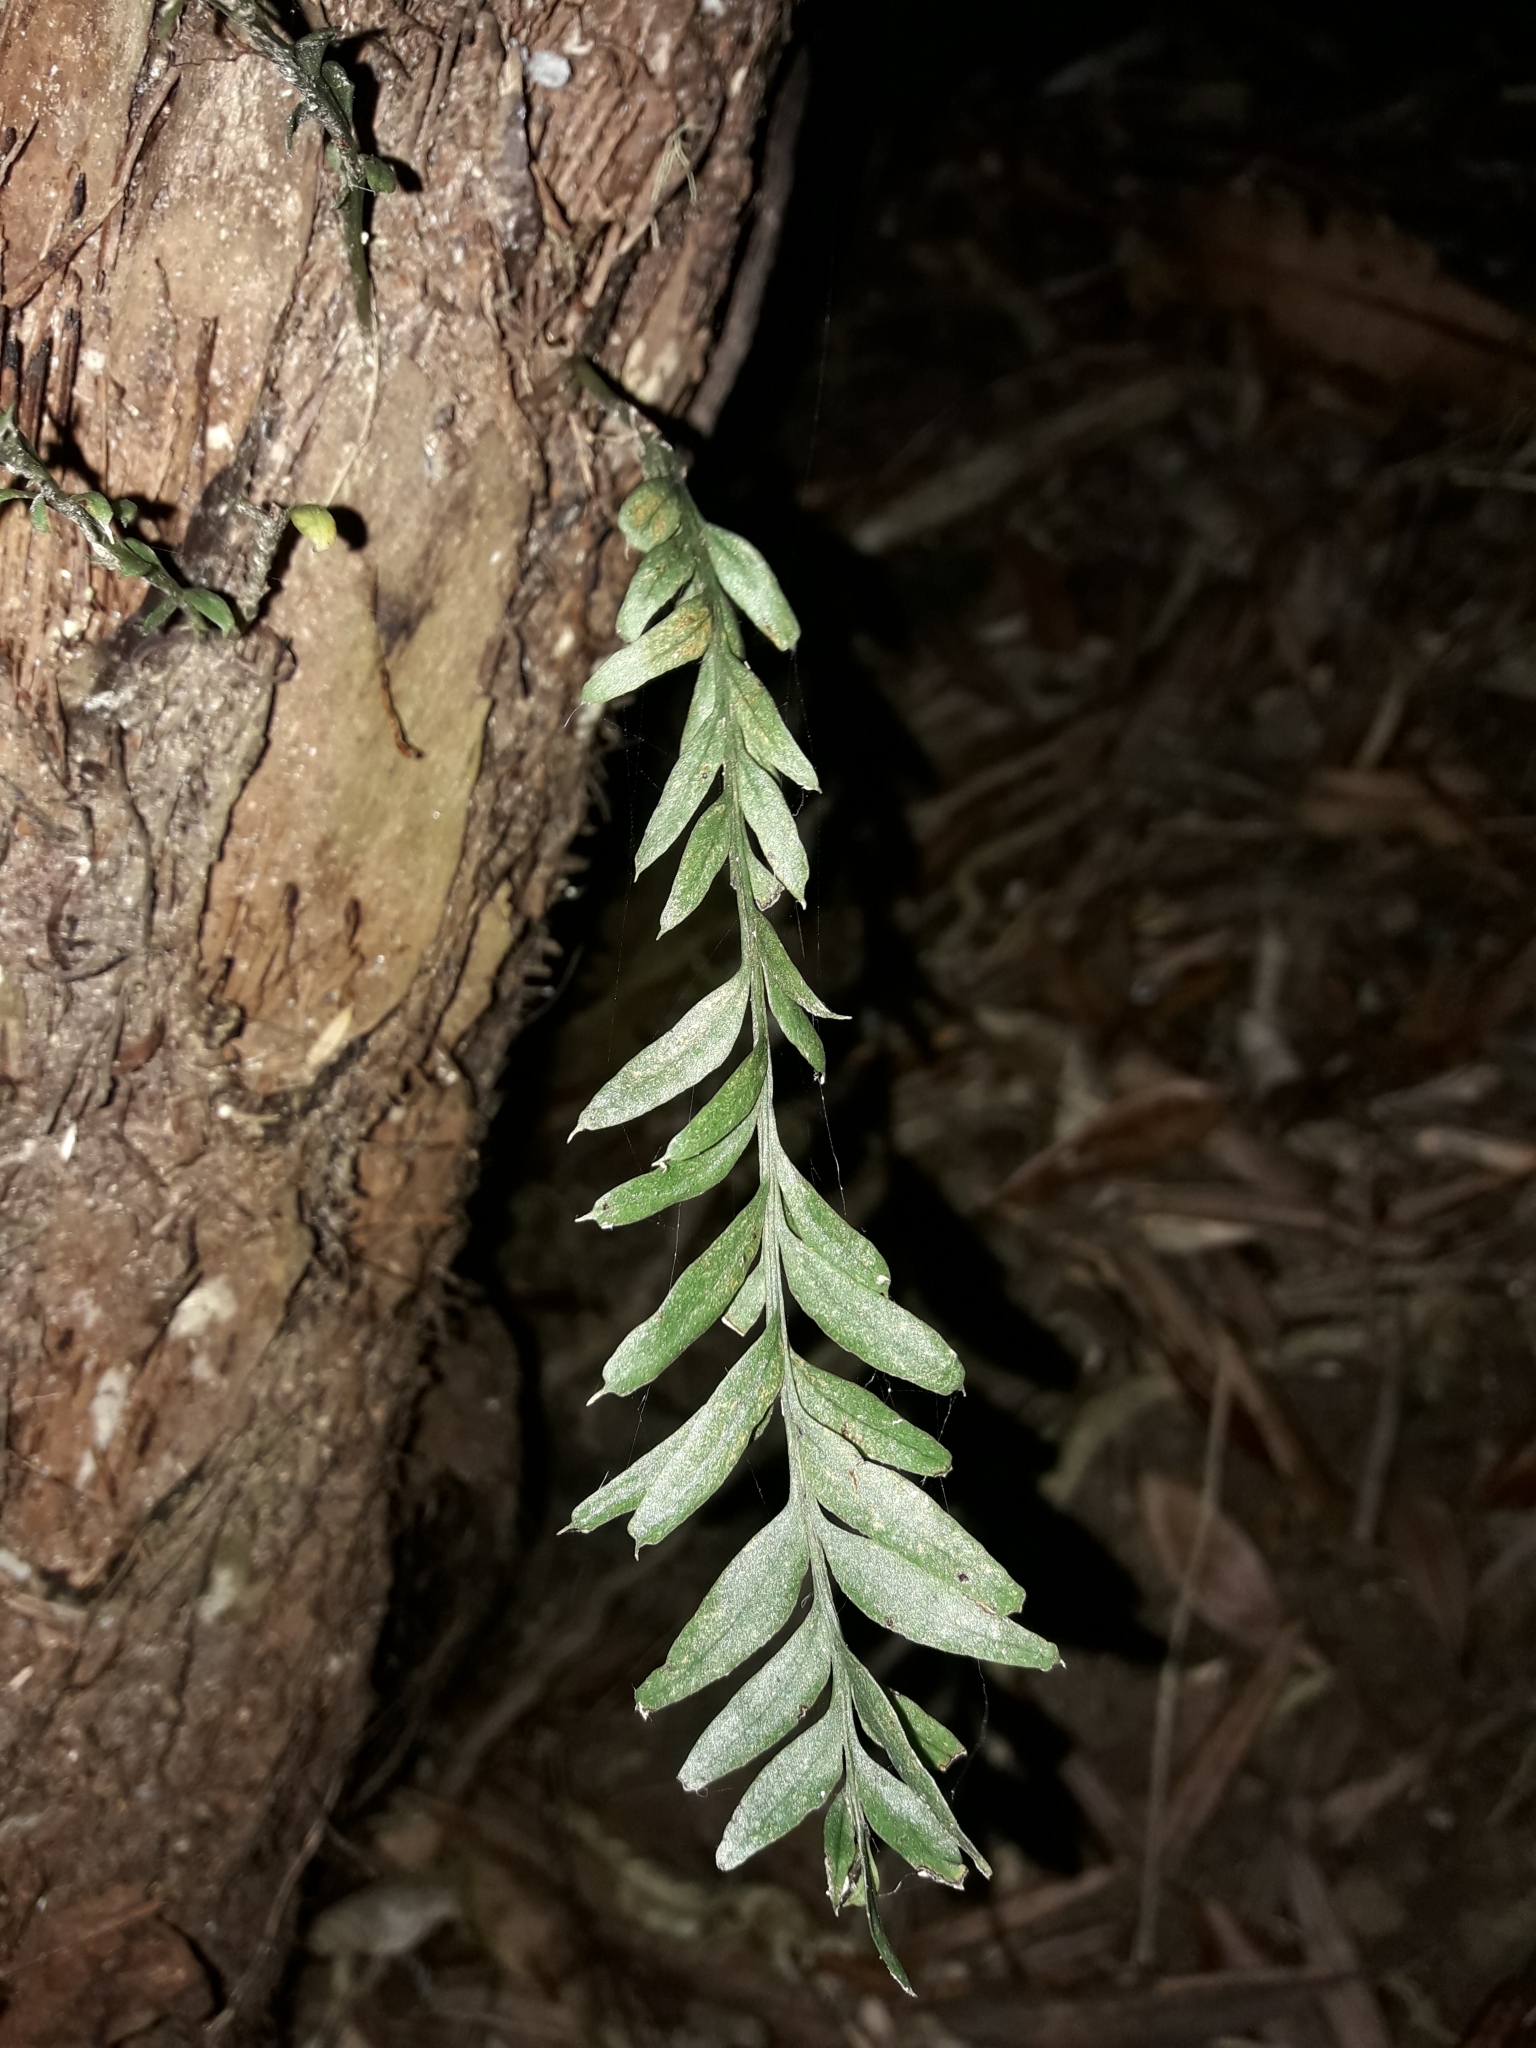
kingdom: Plantae
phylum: Tracheophyta
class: Polypodiopsida
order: Psilotales
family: Psilotaceae
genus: Tmesipteris
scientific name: Tmesipteris elongata
